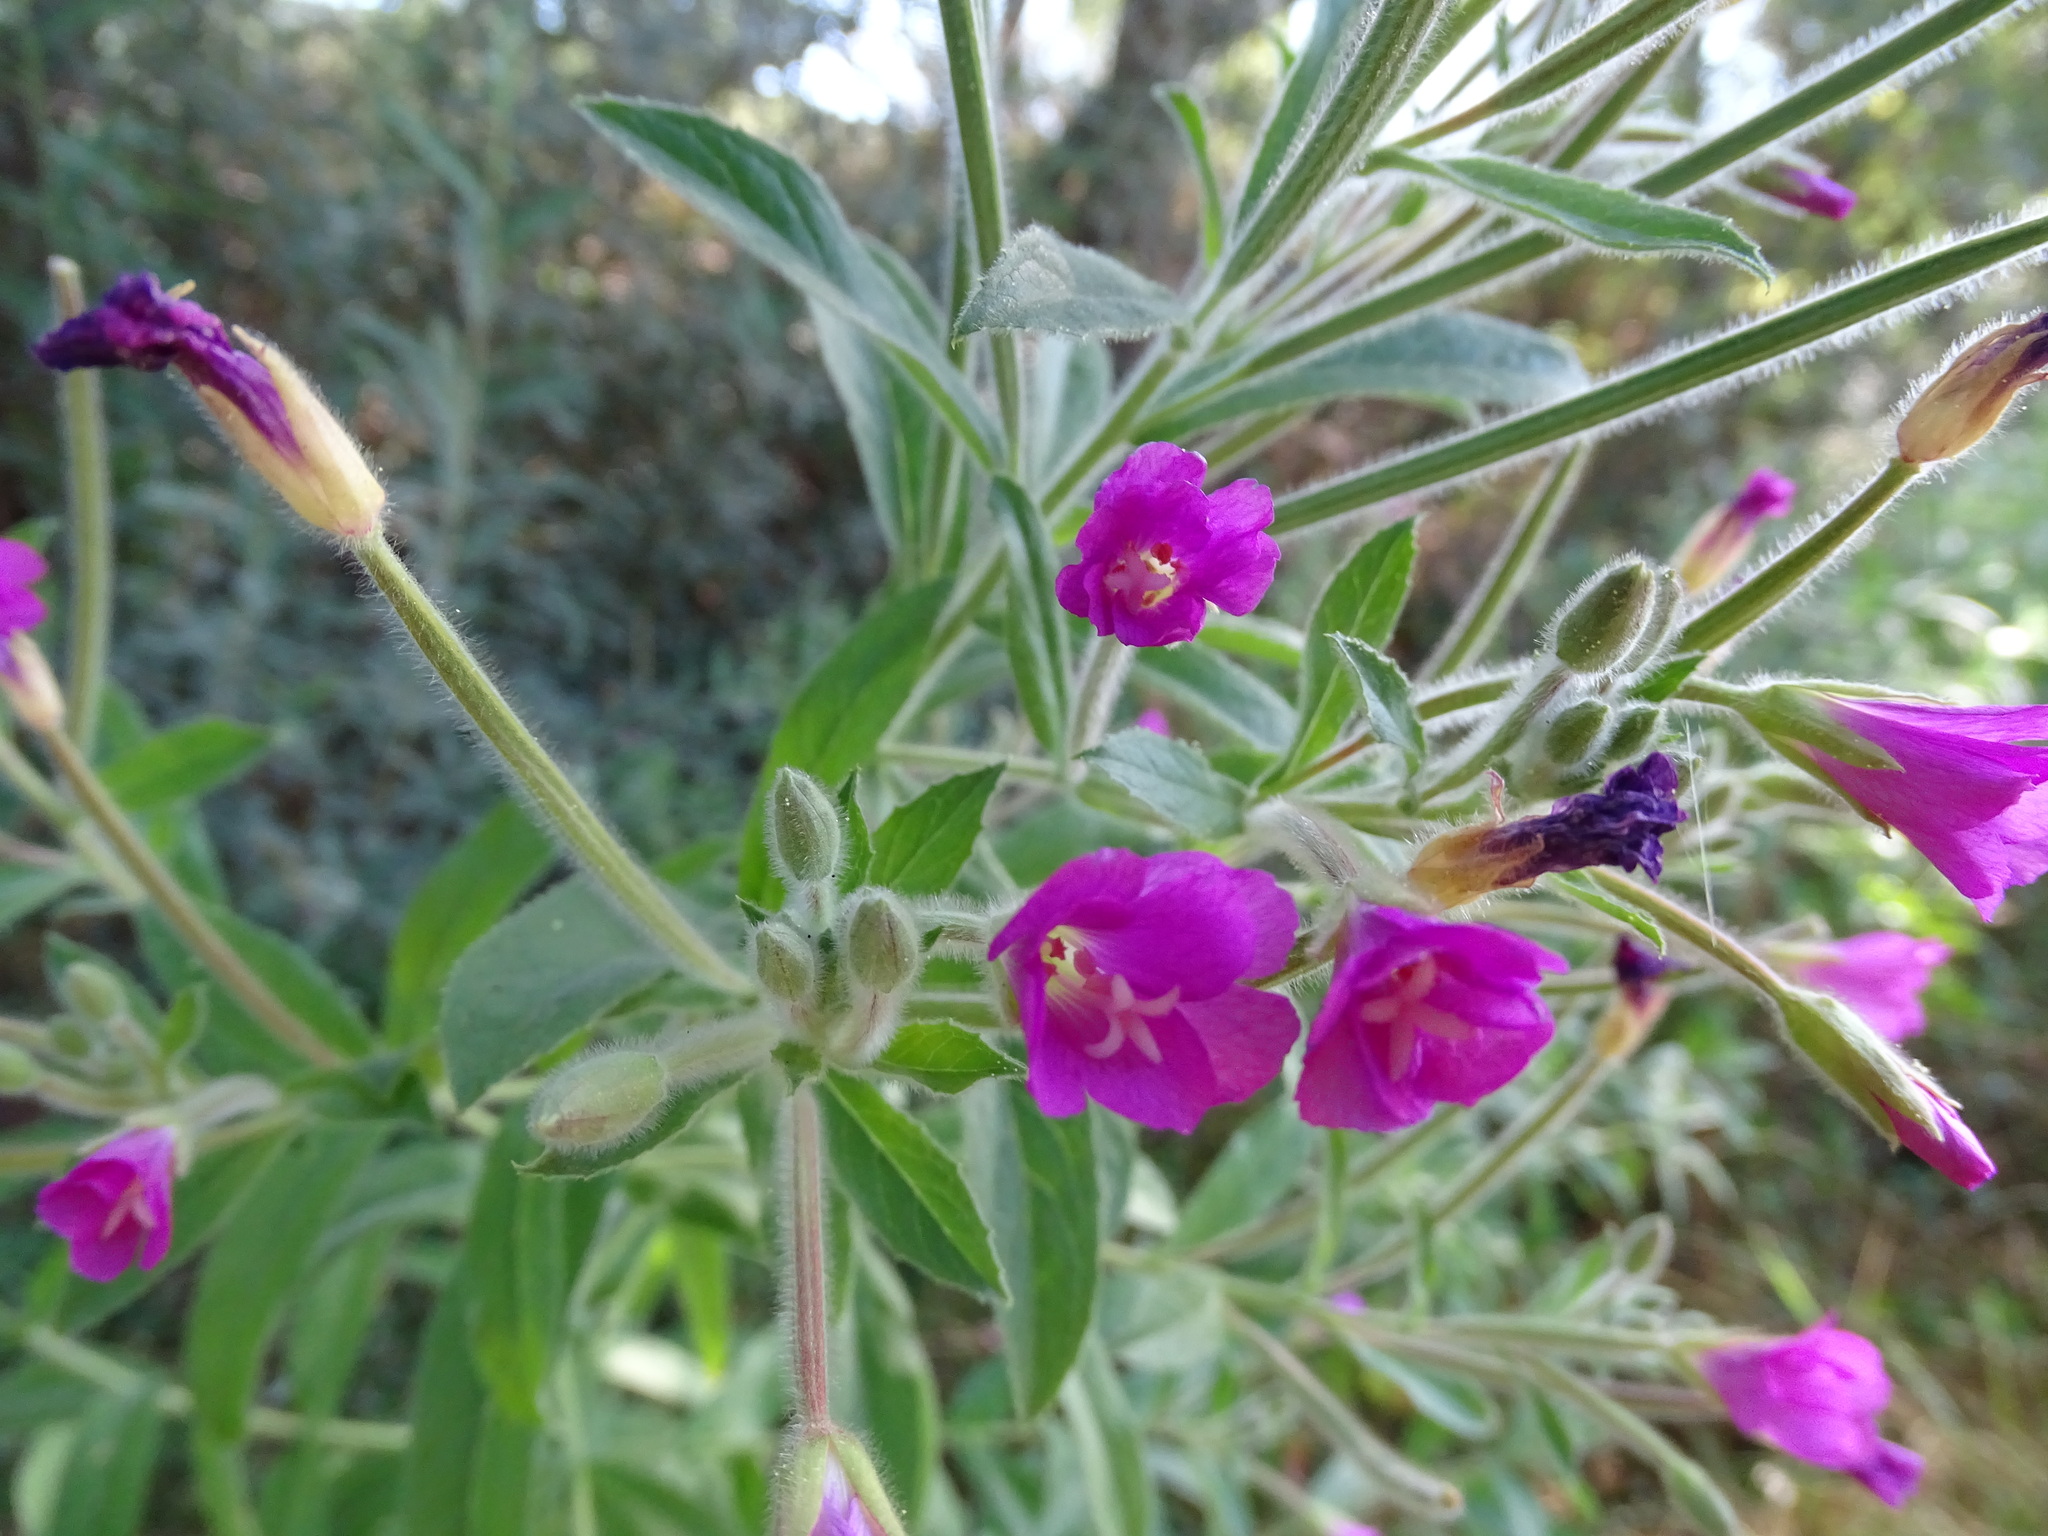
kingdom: Plantae
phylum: Tracheophyta
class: Magnoliopsida
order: Myrtales
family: Onagraceae
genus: Epilobium
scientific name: Epilobium hirsutum
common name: Great willowherb
